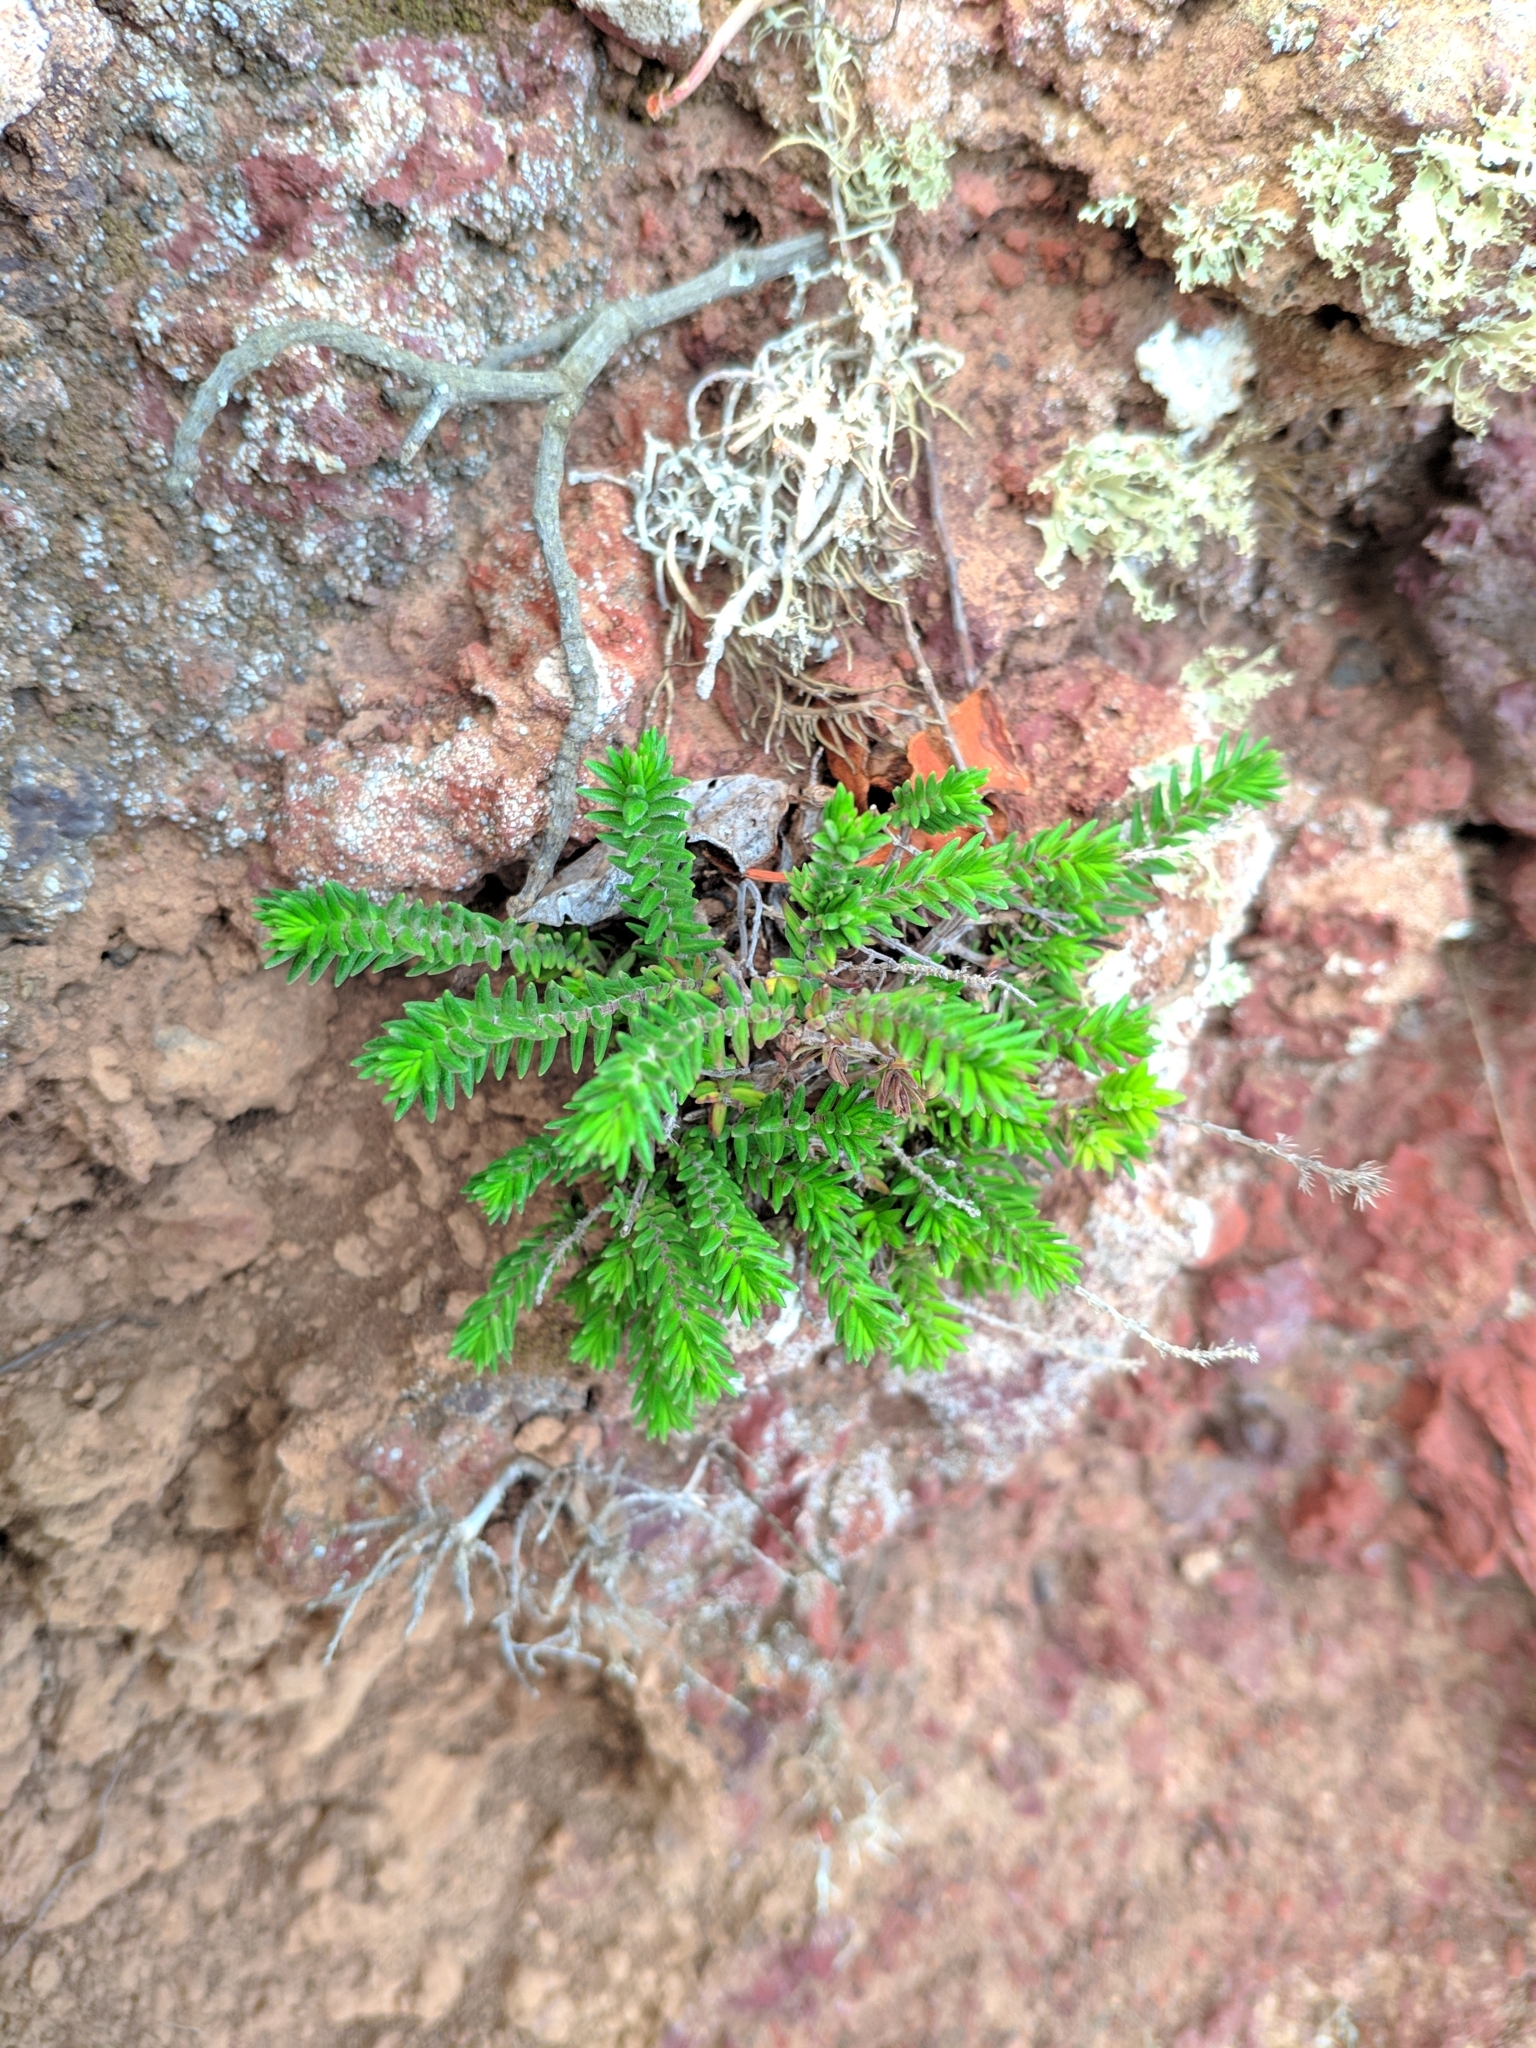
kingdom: Plantae
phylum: Tracheophyta
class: Magnoliopsida
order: Lamiales
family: Lamiaceae
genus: Micromeria
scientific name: Micromeria mahanensis
